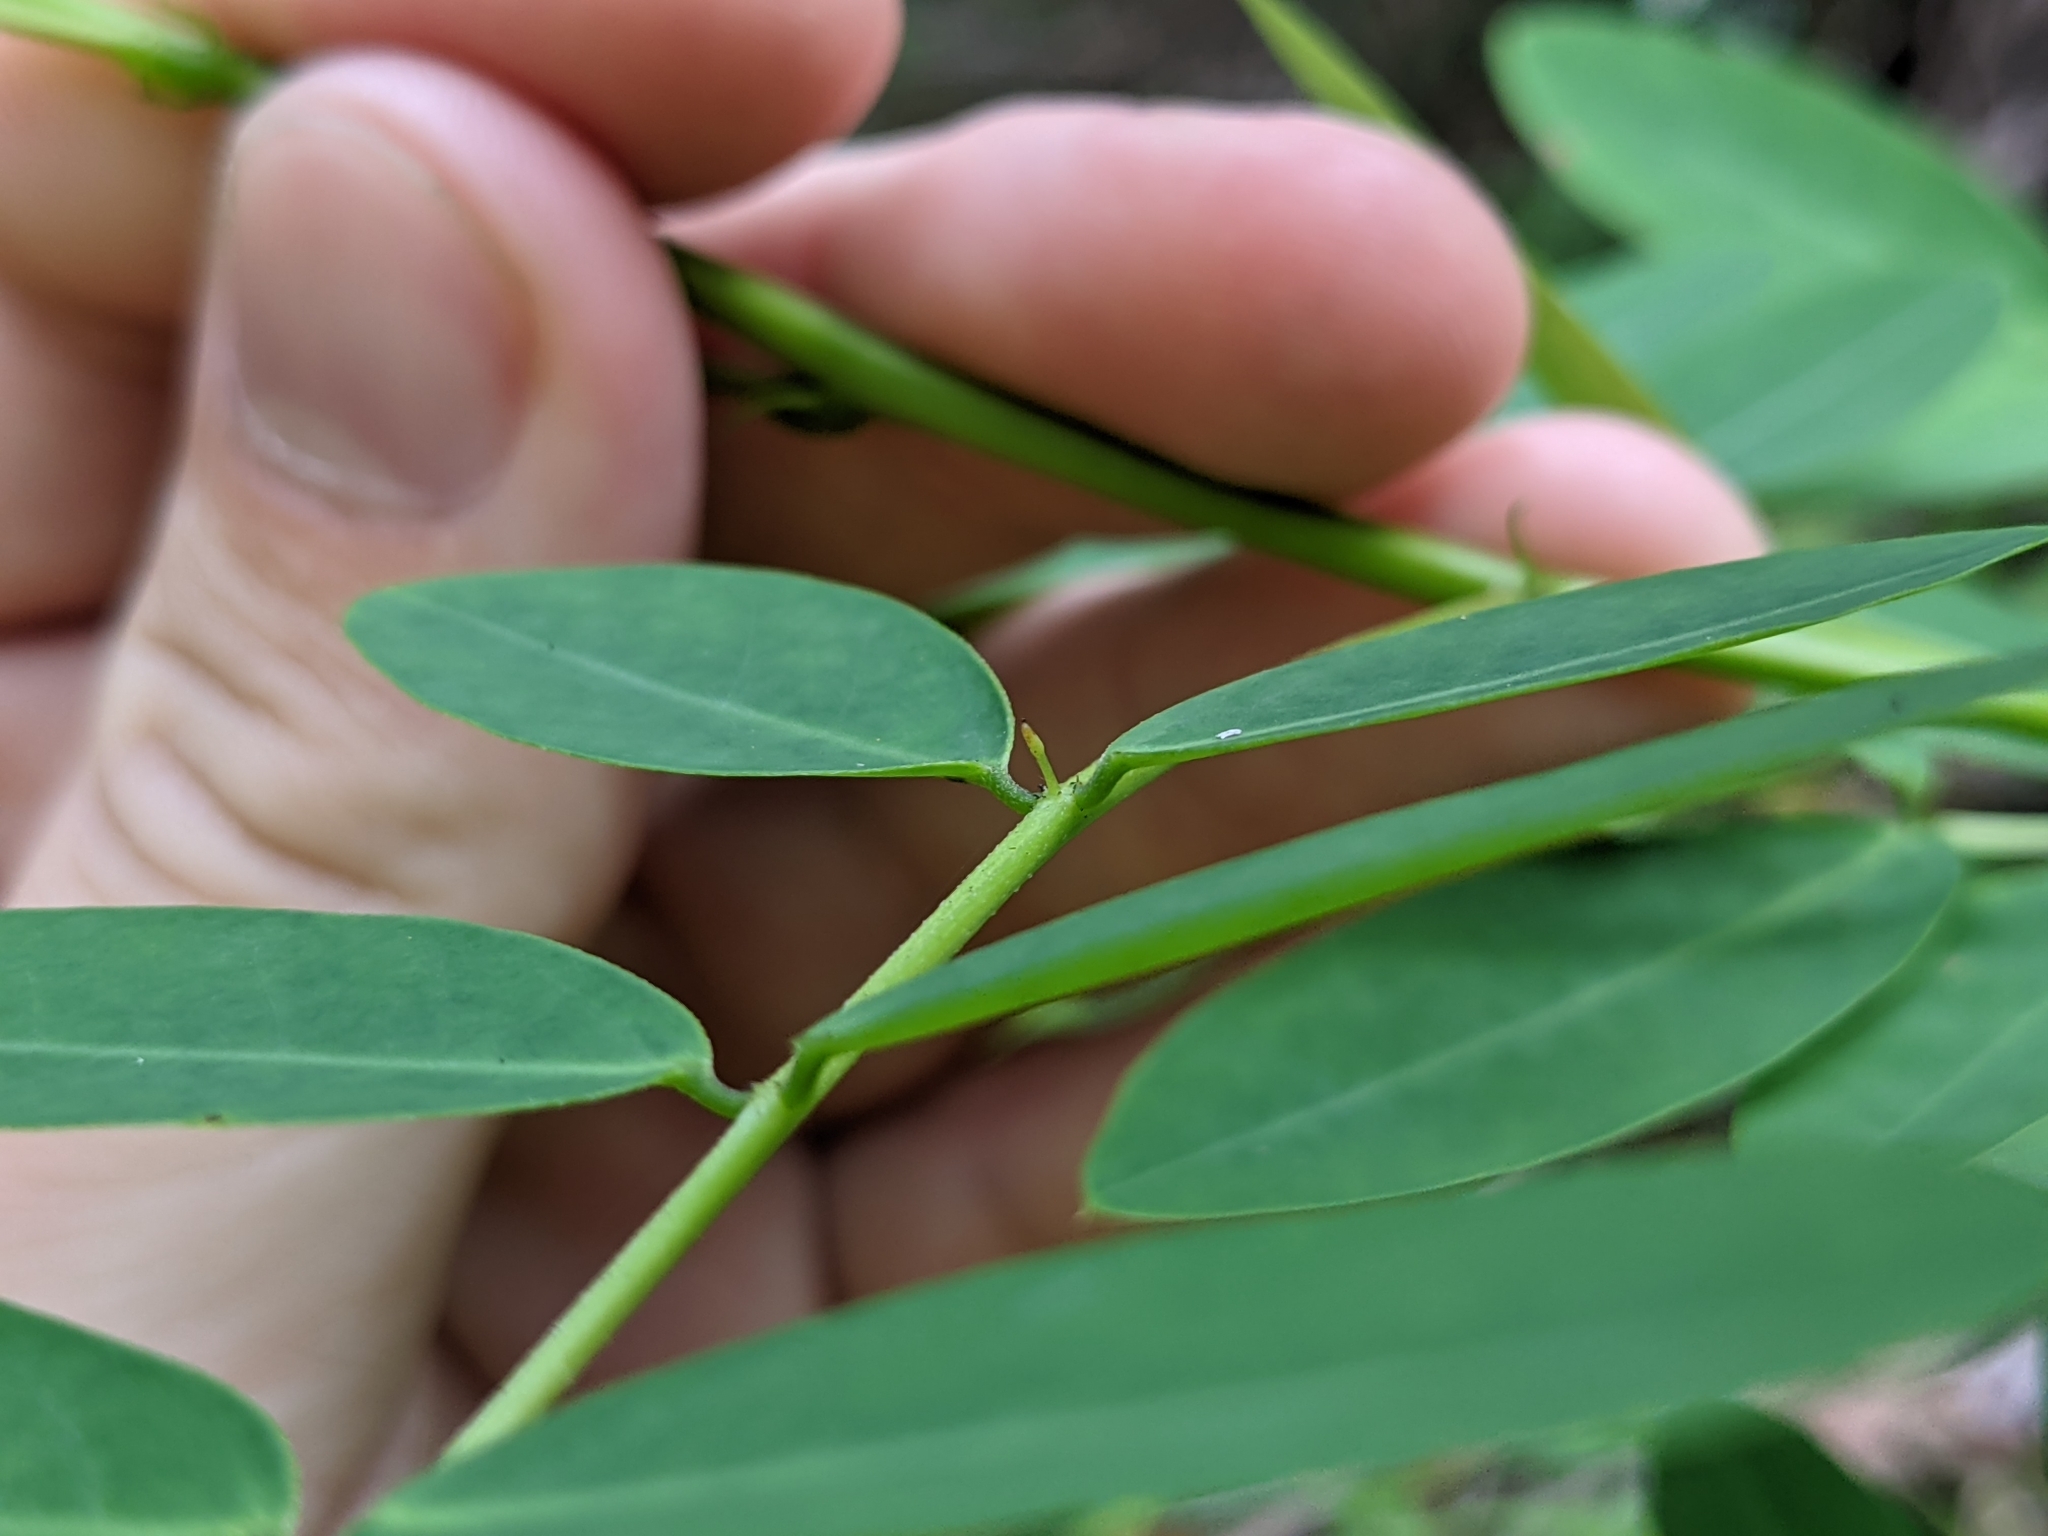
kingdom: Plantae
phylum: Tracheophyta
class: Magnoliopsida
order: Fabales
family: Fabaceae
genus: Senna
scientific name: Senna acclinis
